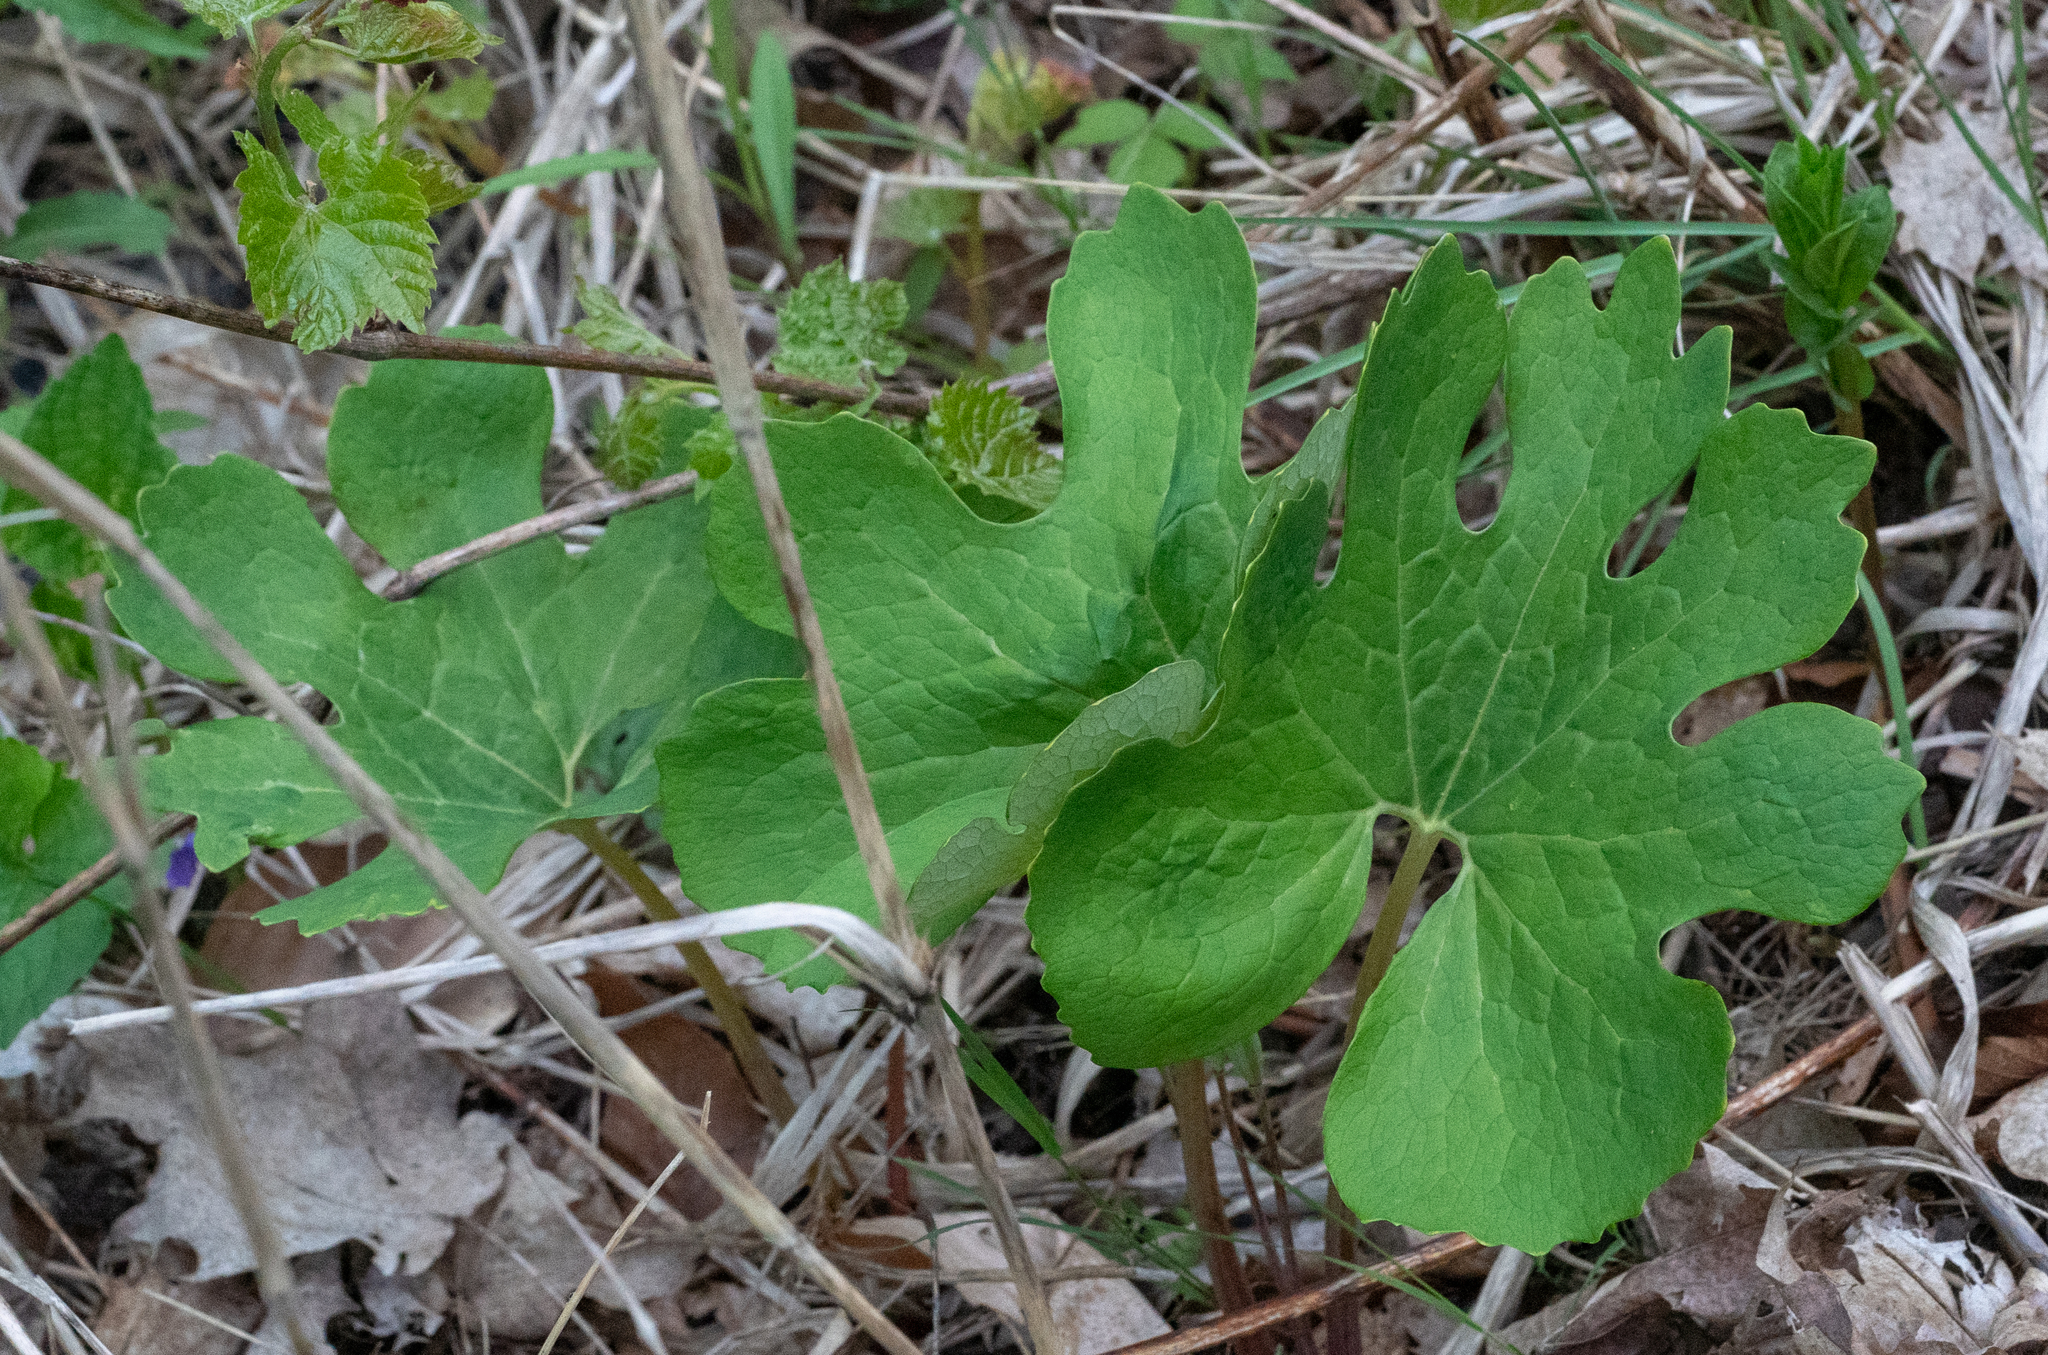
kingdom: Plantae
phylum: Tracheophyta
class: Magnoliopsida
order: Ranunculales
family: Papaveraceae
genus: Sanguinaria
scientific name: Sanguinaria canadensis
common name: Bloodroot
